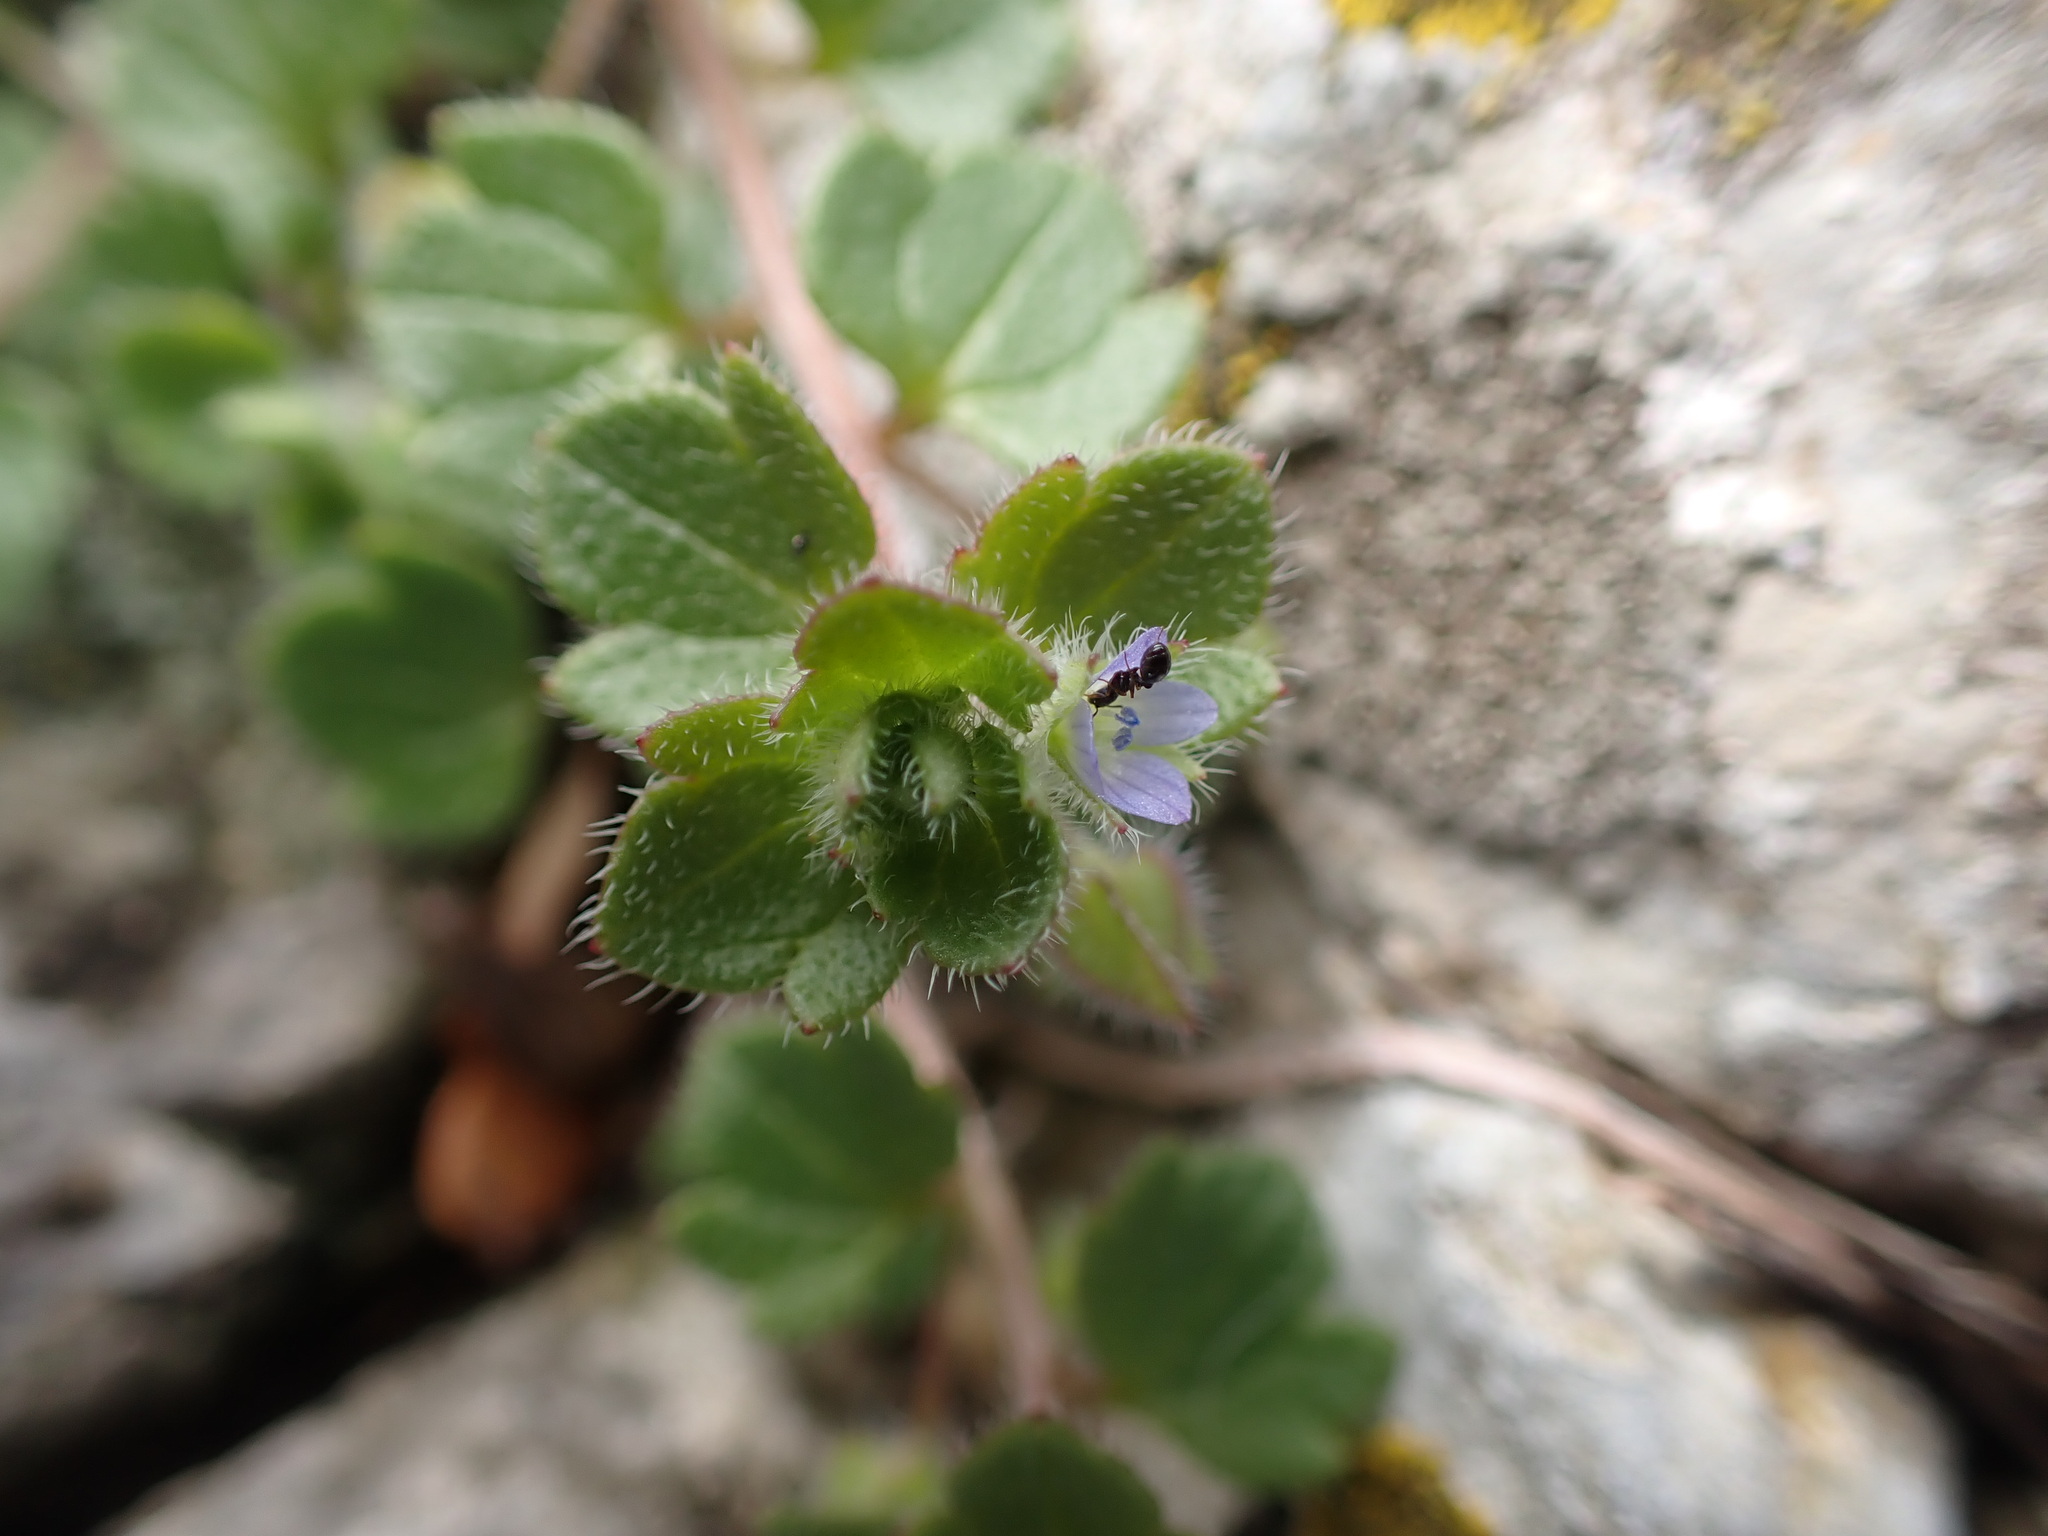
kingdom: Plantae
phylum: Tracheophyta
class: Magnoliopsida
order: Lamiales
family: Plantaginaceae
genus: Veronica
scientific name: Veronica hederifolia
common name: Ivy-leaved speedwell
